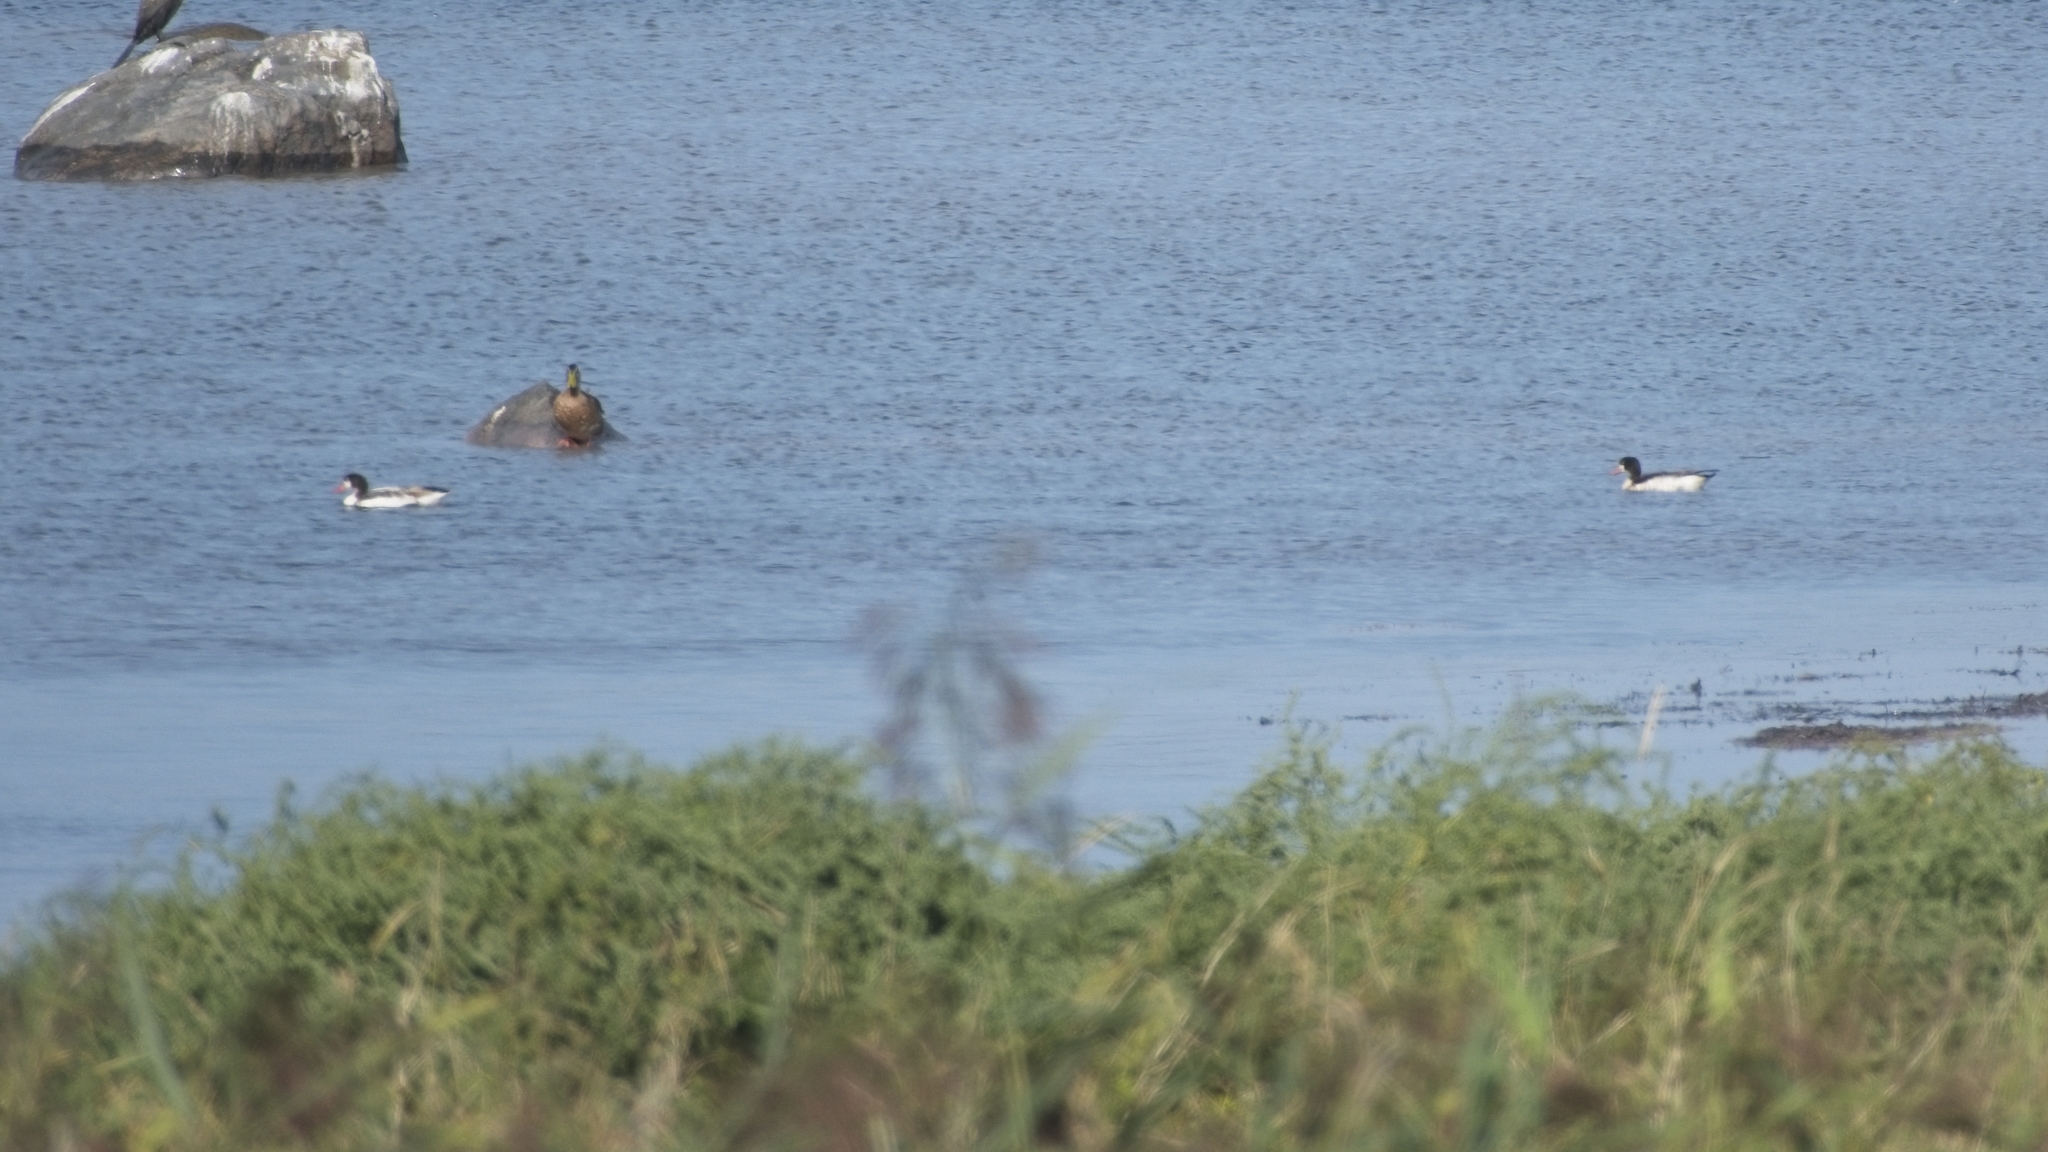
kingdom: Animalia
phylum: Chordata
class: Aves
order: Anseriformes
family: Anatidae
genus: Tadorna
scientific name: Tadorna tadorna
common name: Common shelduck
